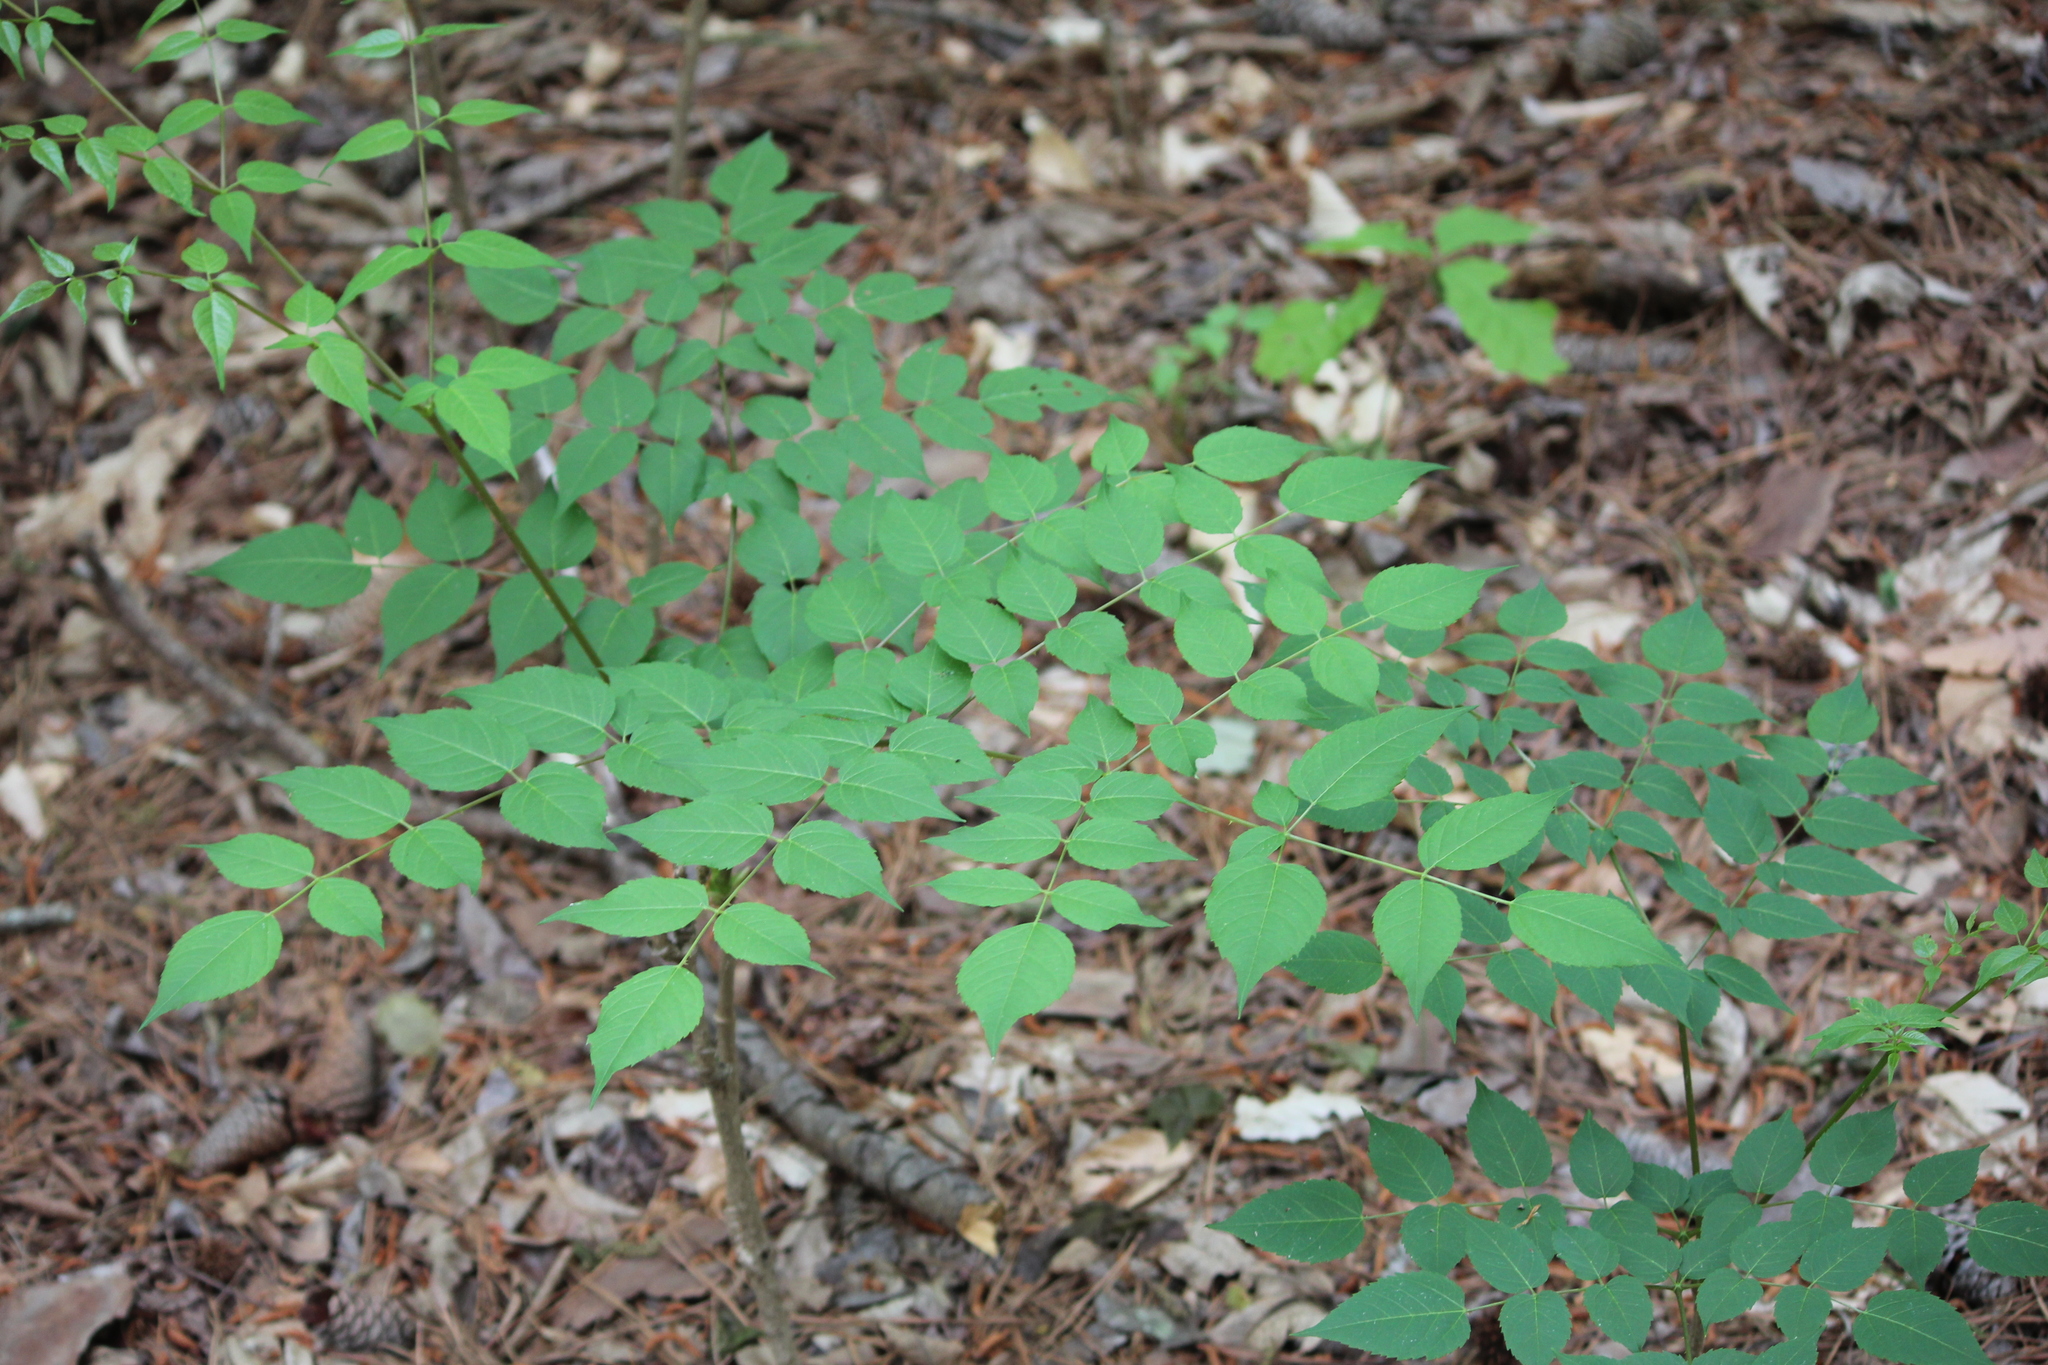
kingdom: Plantae
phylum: Tracheophyta
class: Magnoliopsida
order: Apiales
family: Araliaceae
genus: Aralia
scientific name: Aralia spinosa
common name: Hercules'-club
